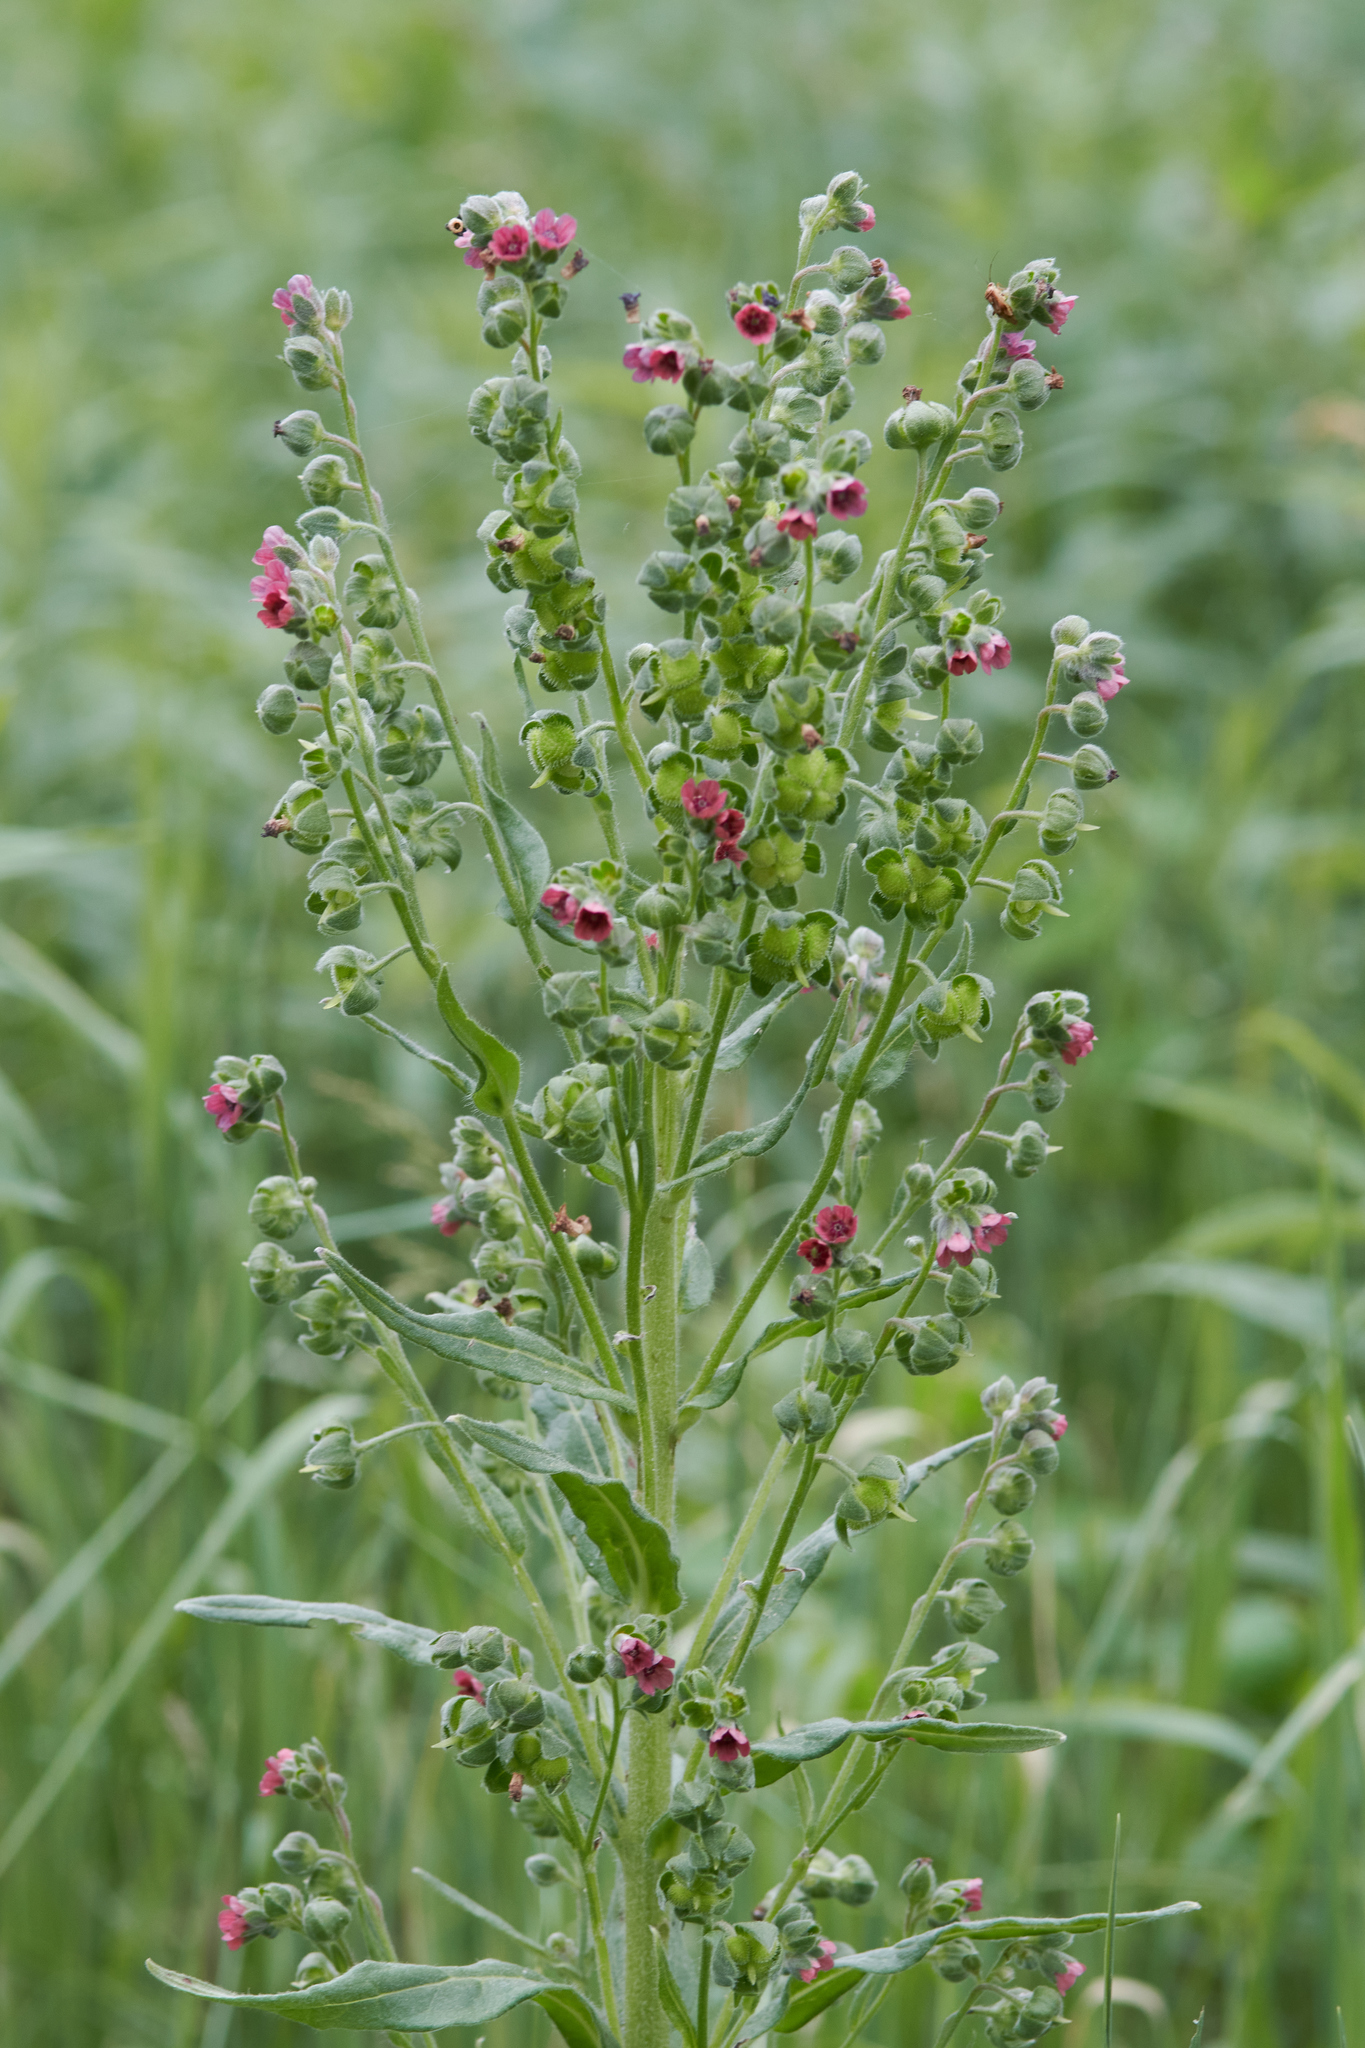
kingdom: Plantae
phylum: Tracheophyta
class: Magnoliopsida
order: Boraginales
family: Boraginaceae
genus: Cynoglossum
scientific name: Cynoglossum officinale
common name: Hound's-tongue
